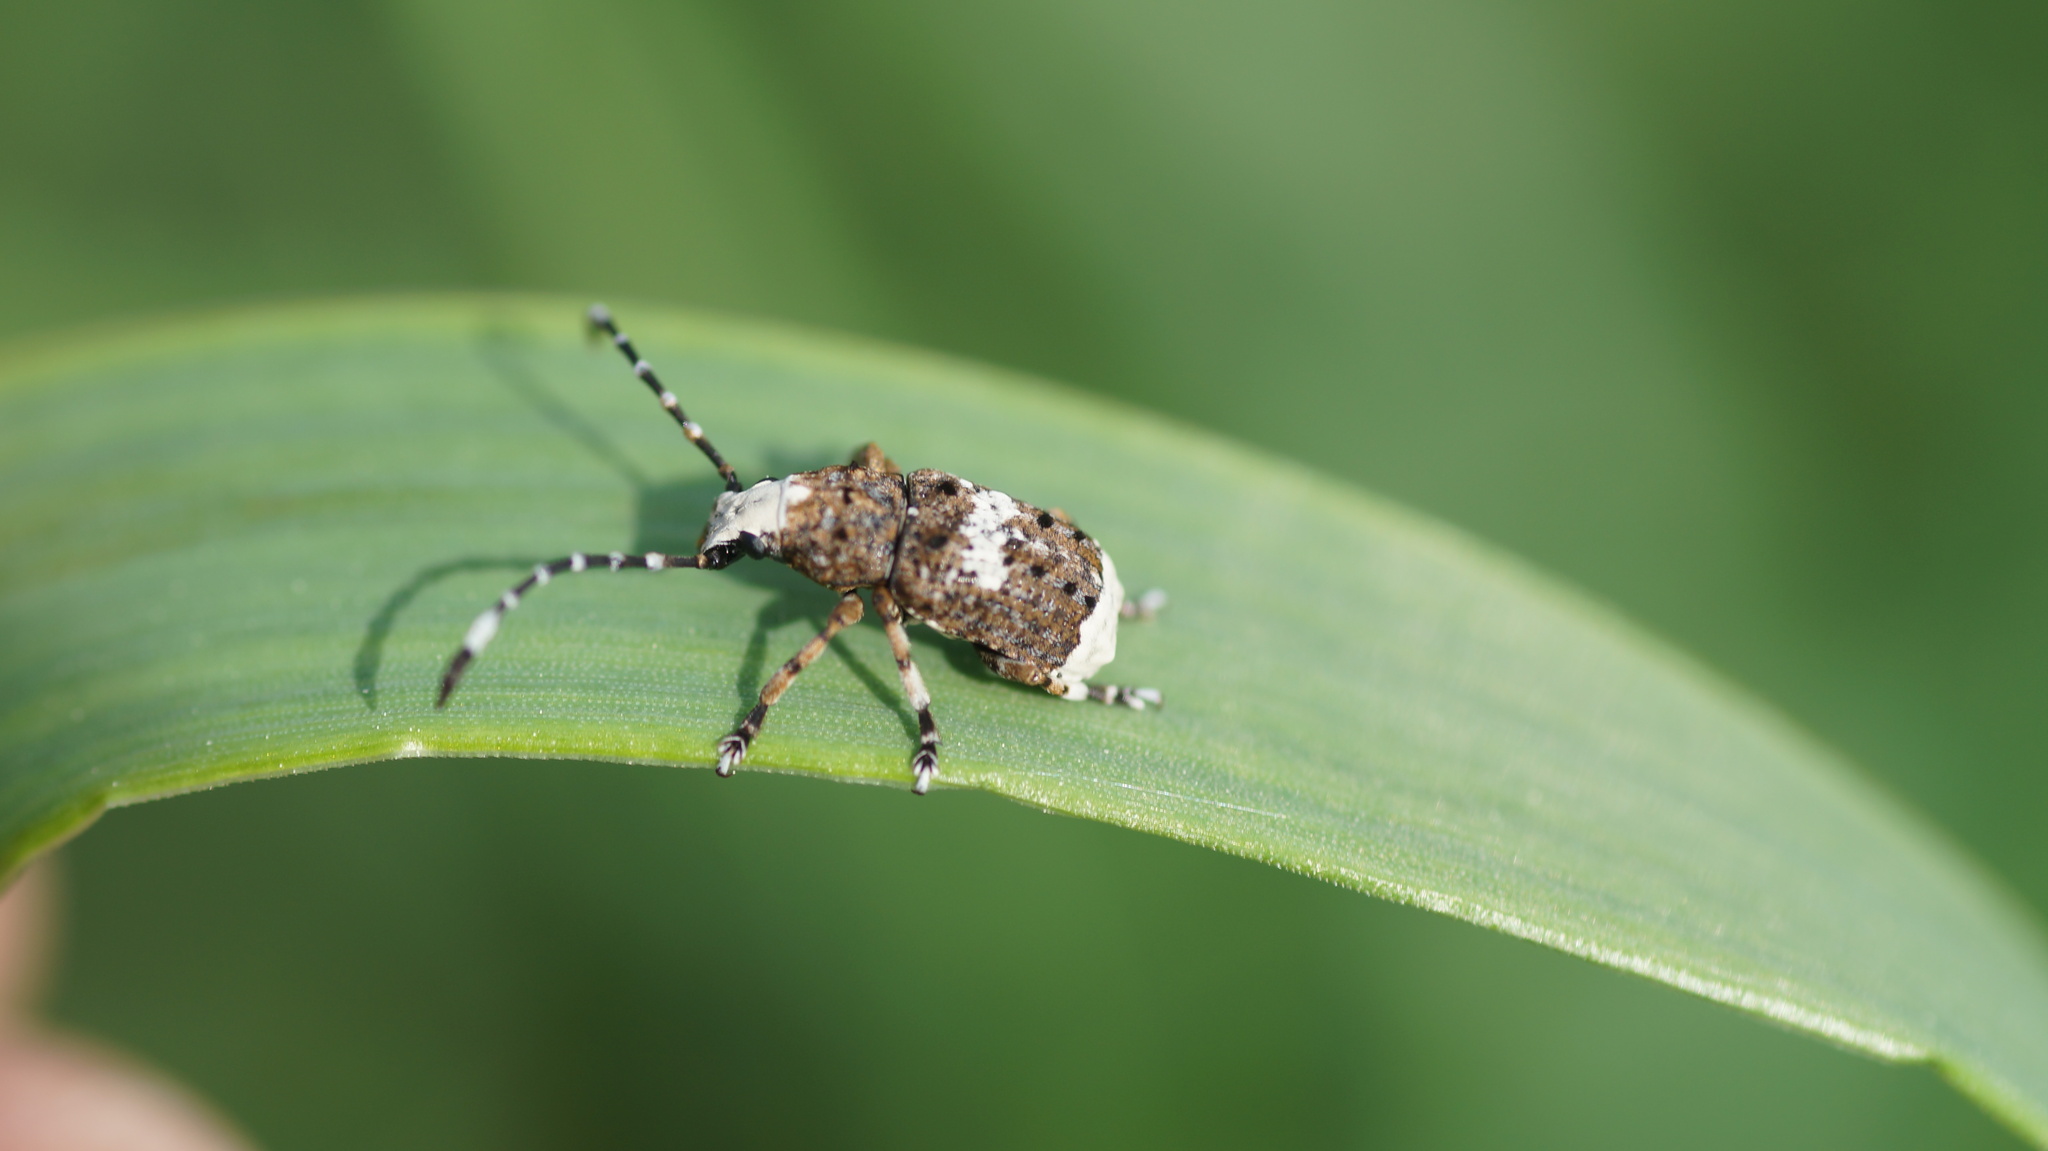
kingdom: Animalia
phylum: Arthropoda
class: Insecta
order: Coleoptera
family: Anthribidae
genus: Platystomos
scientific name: Platystomos albinus
